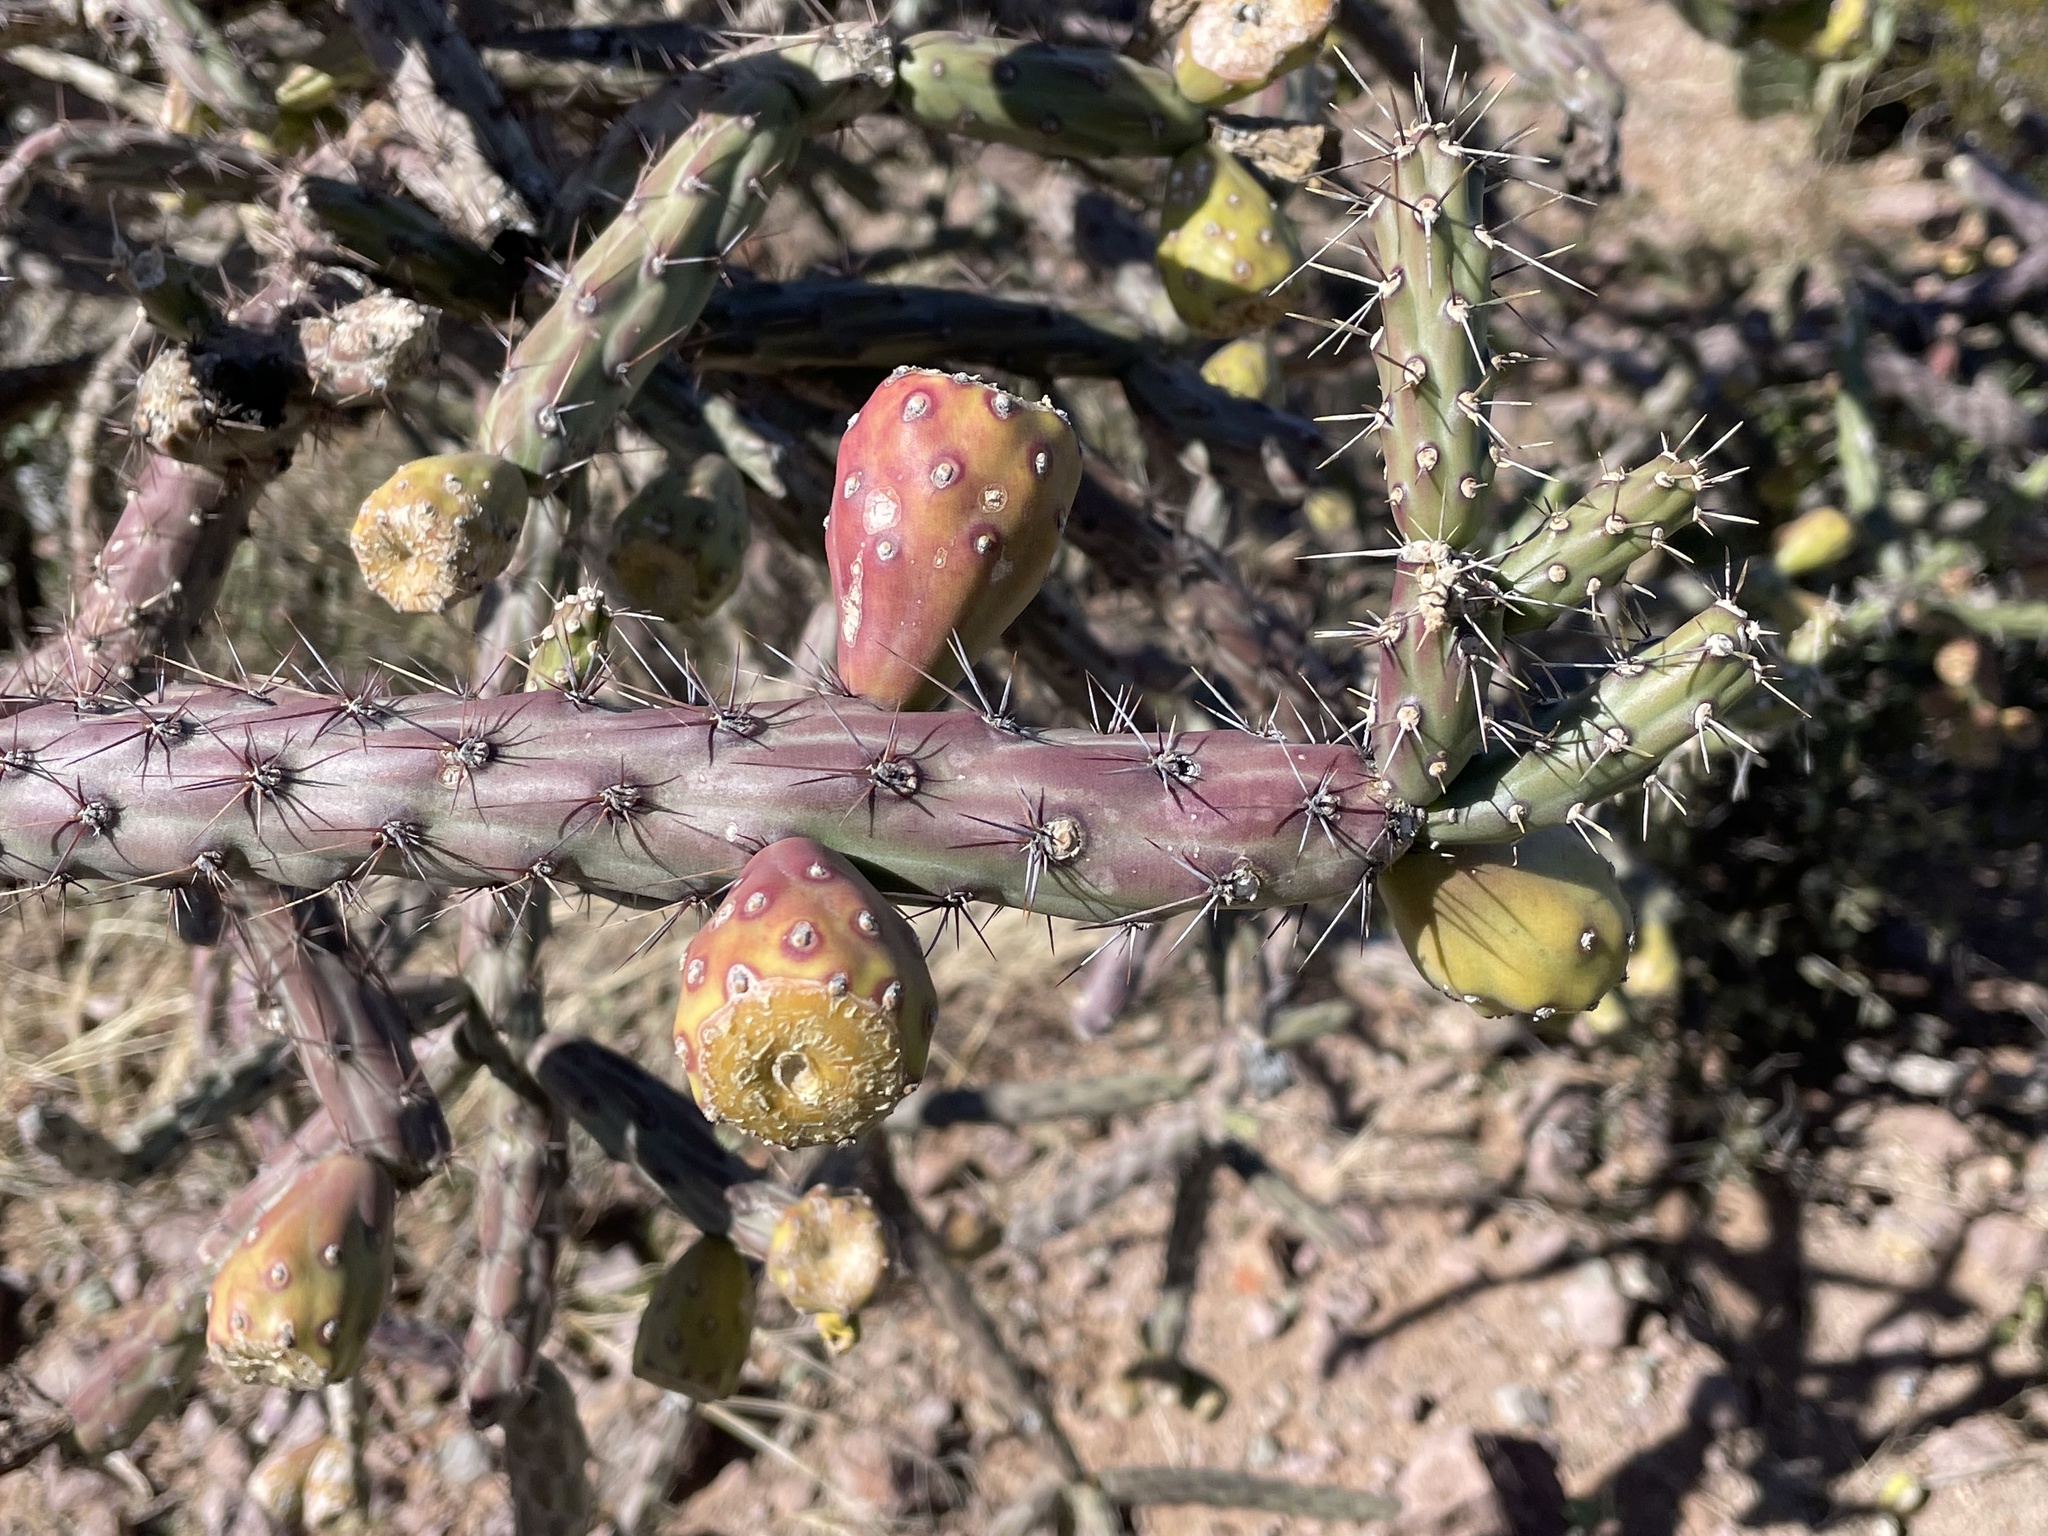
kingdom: Plantae
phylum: Tracheophyta
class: Magnoliopsida
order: Caryophyllales
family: Cactaceae
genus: Cylindropuntia
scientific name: Cylindropuntia thurberi
